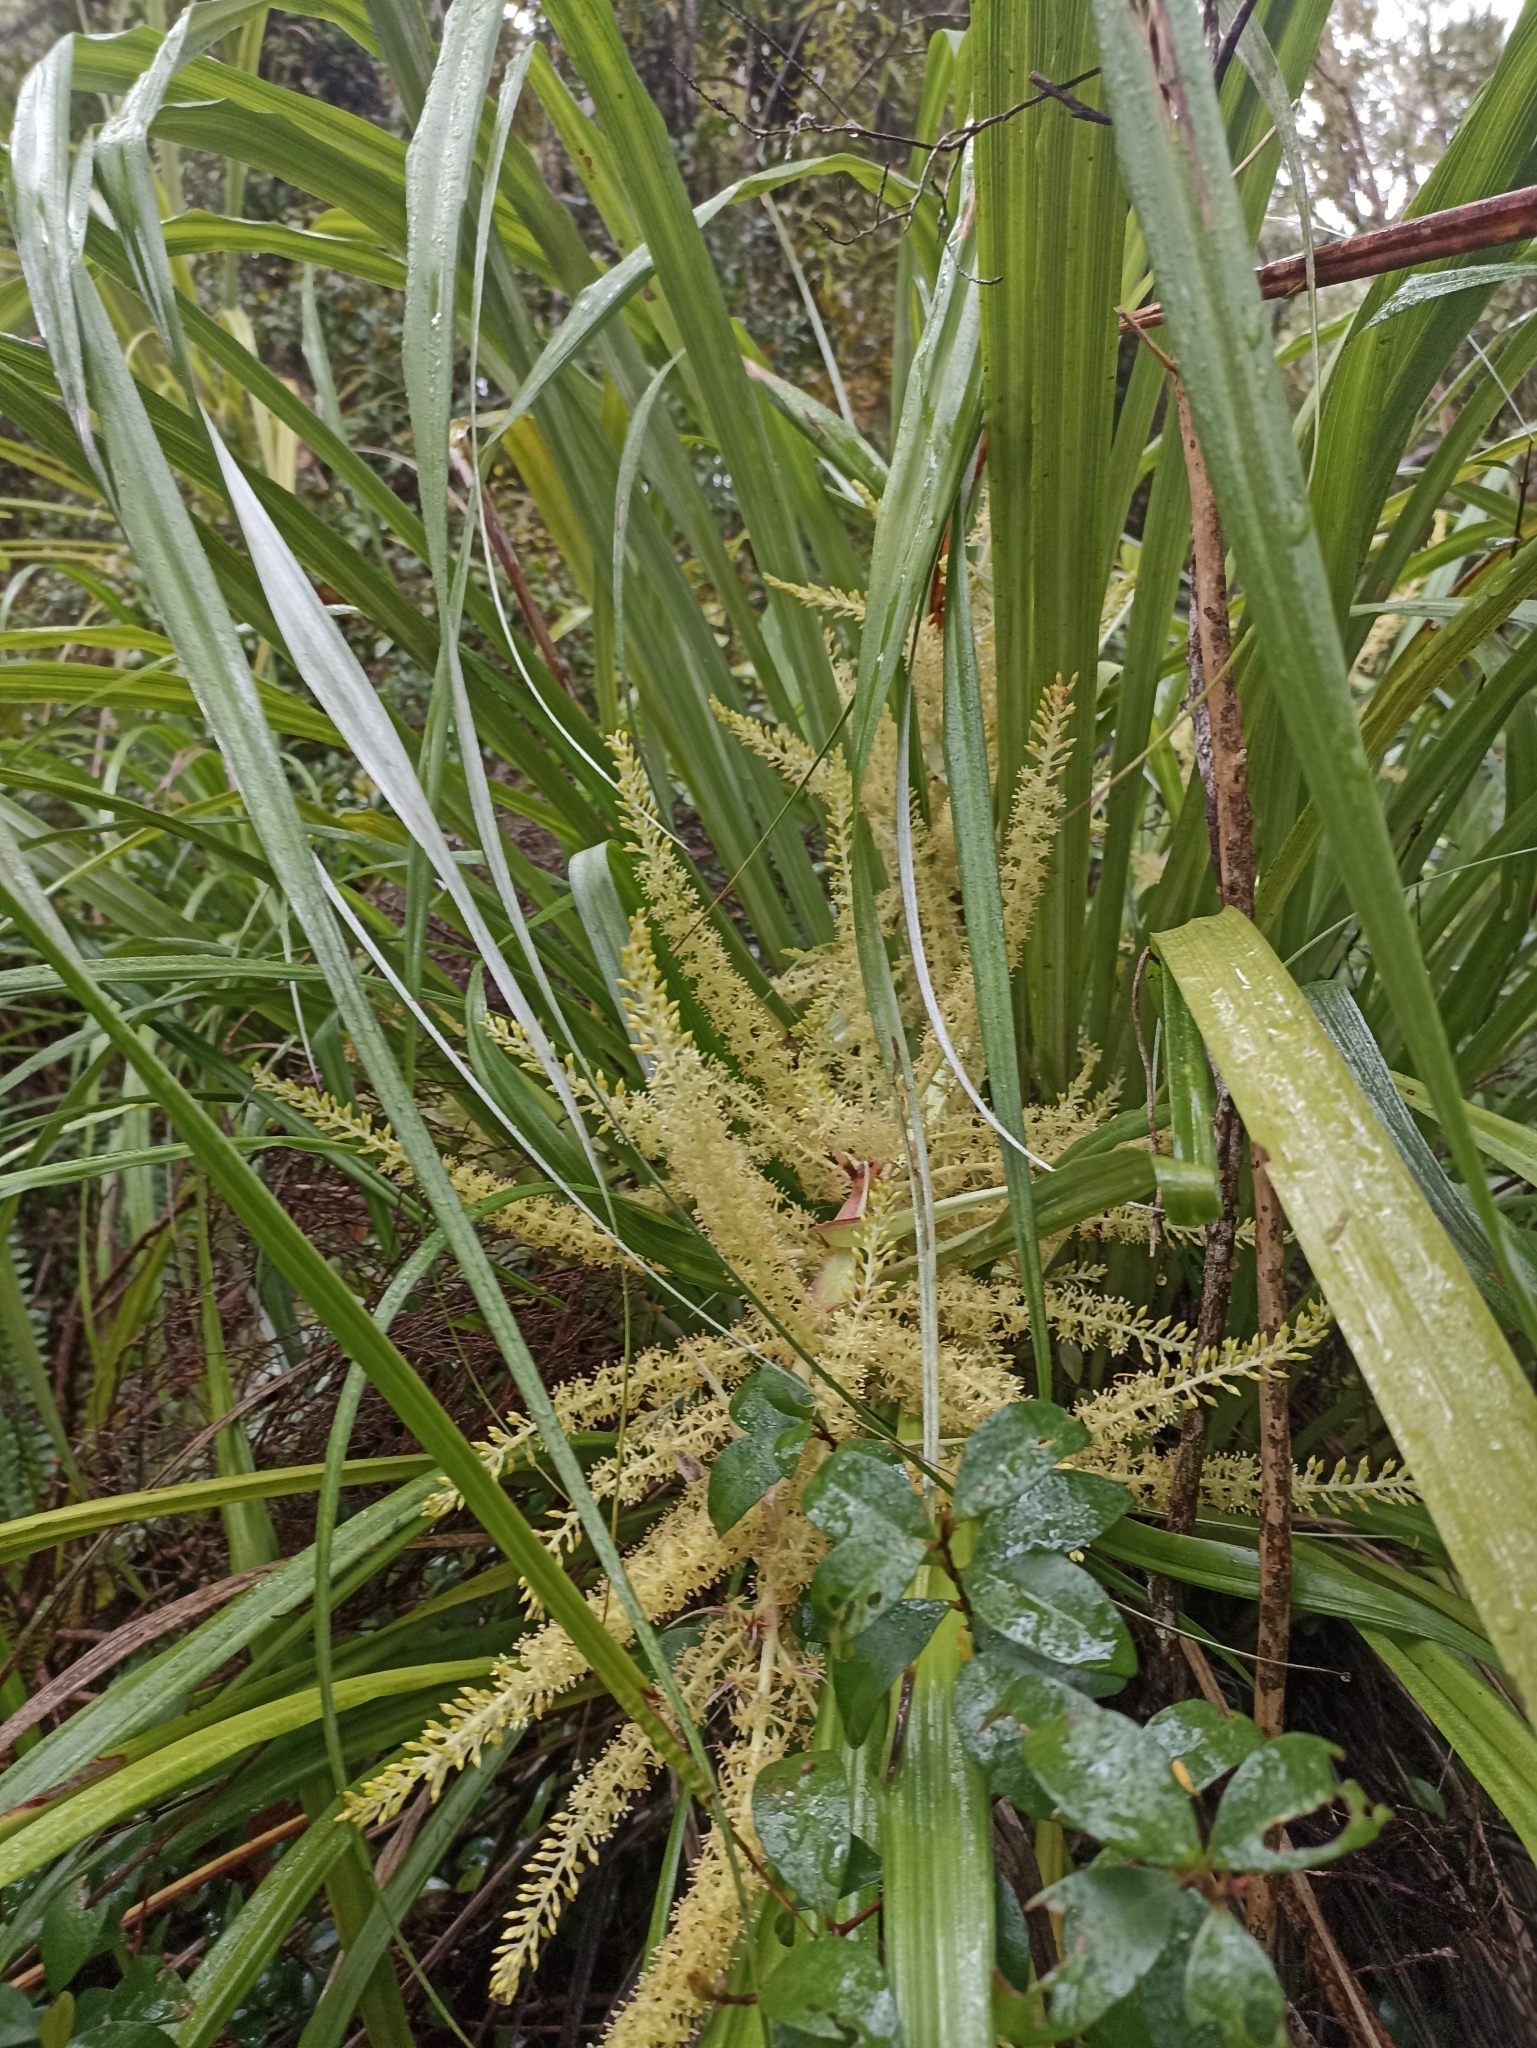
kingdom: Plantae
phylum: Tracheophyta
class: Liliopsida
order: Asparagales
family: Asteliaceae
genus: Astelia
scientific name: Astelia solandri
